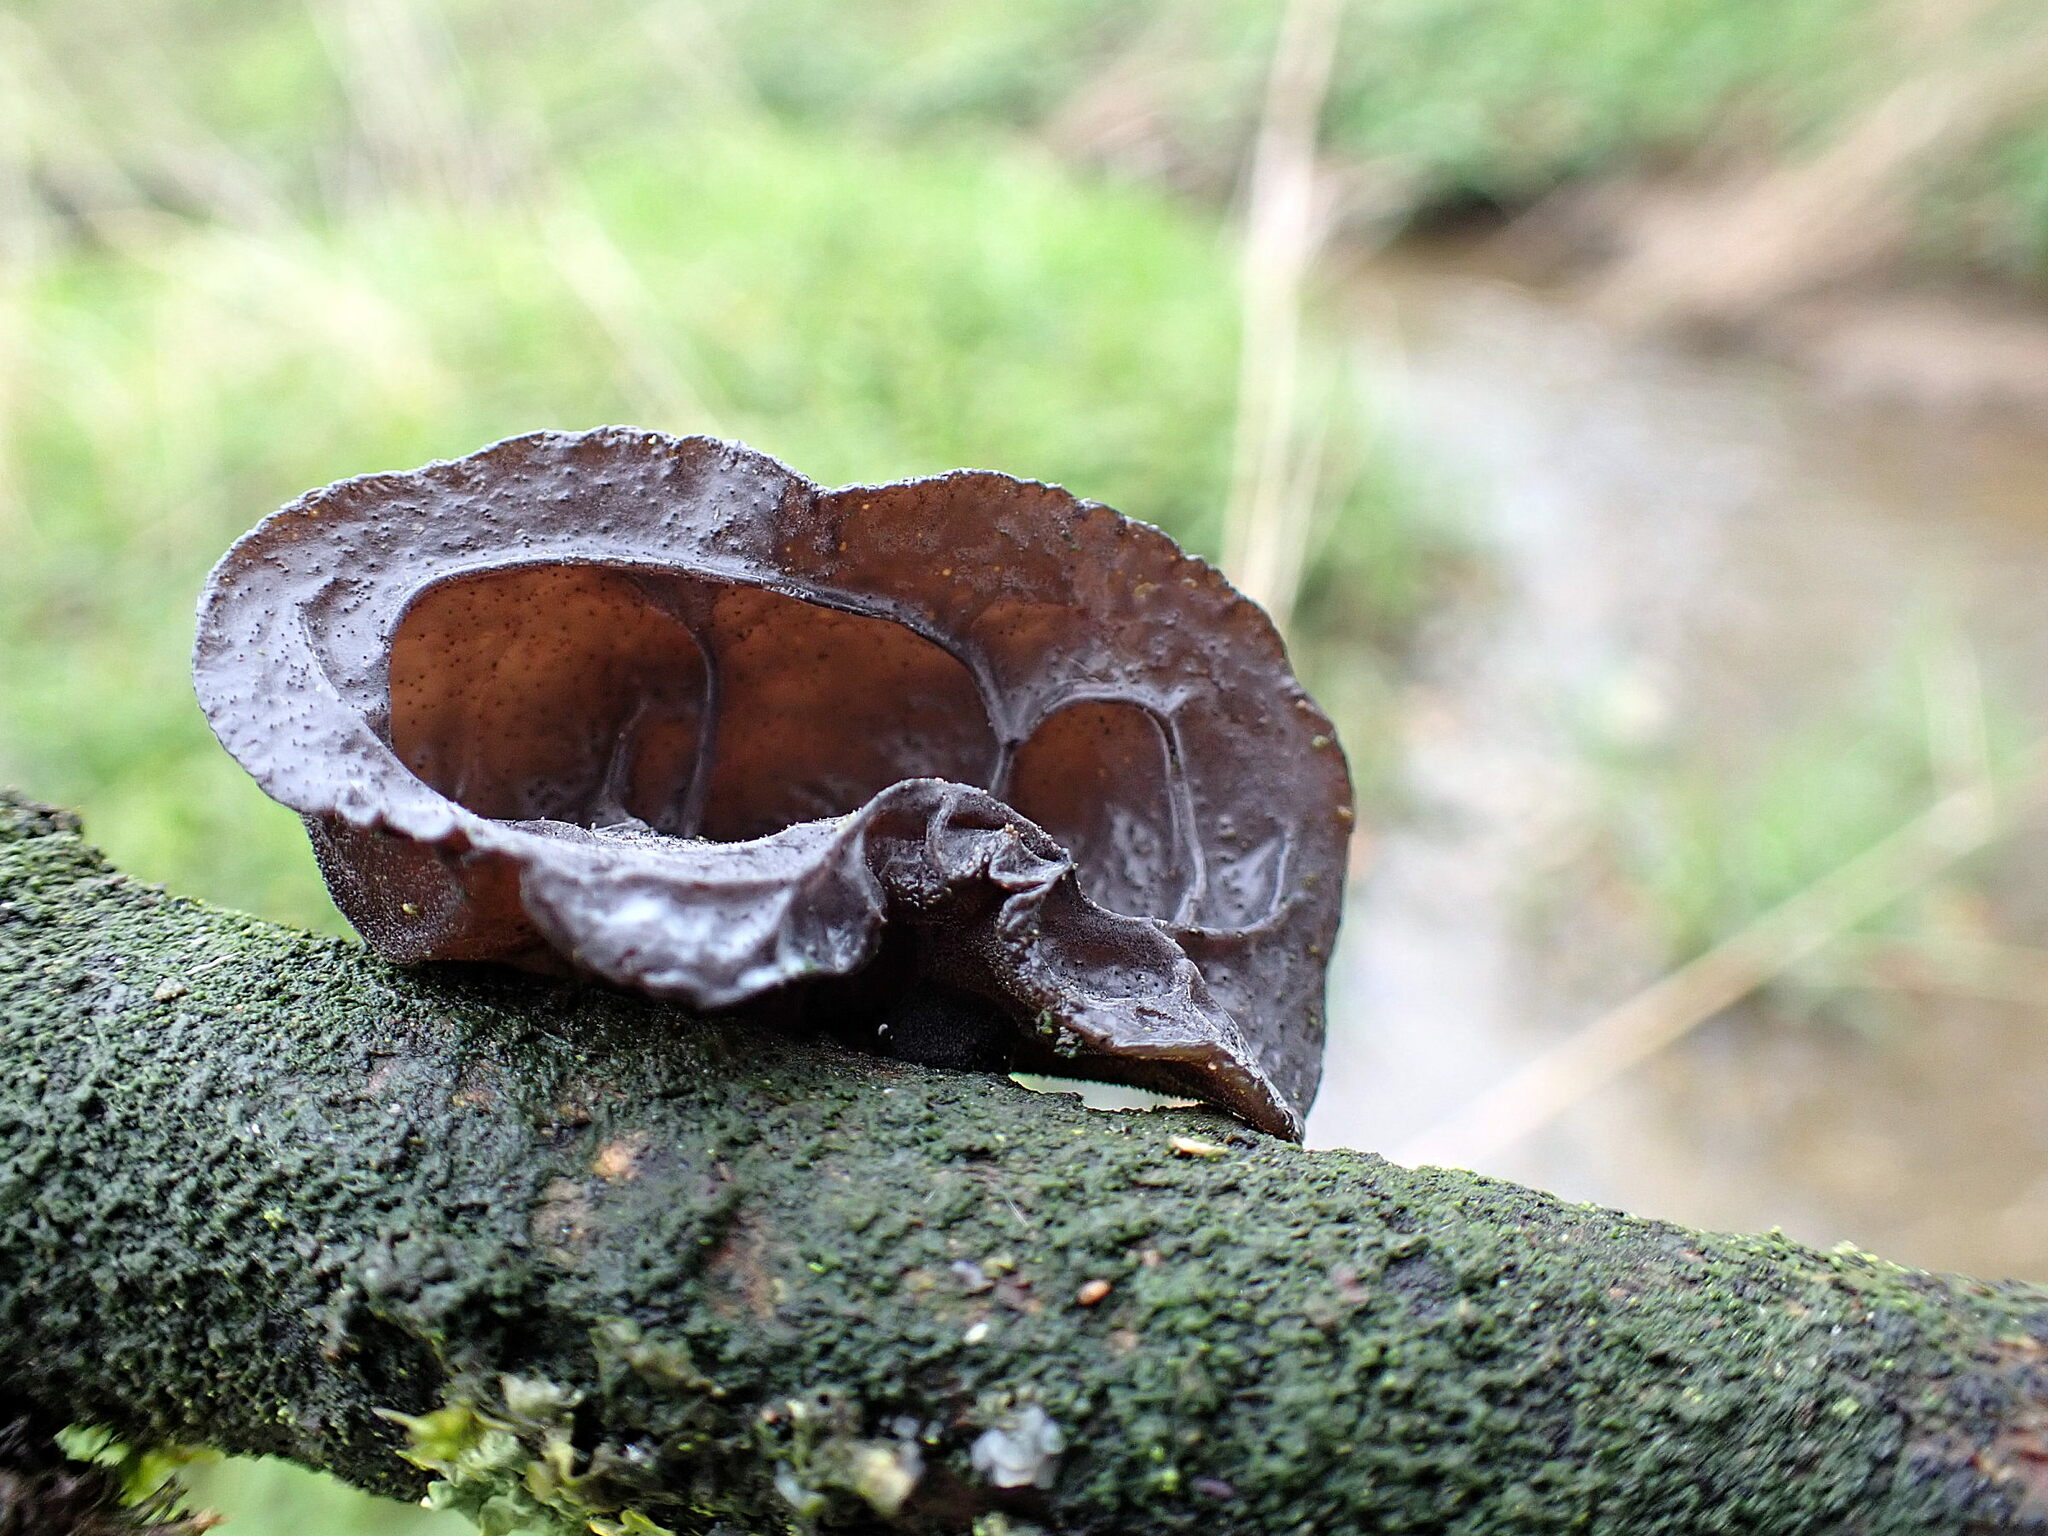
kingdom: Fungi
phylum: Basidiomycota
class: Agaricomycetes
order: Auriculariales
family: Auriculariaceae
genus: Auricularia
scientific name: Auricularia auricula-judae
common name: Jelly ear
